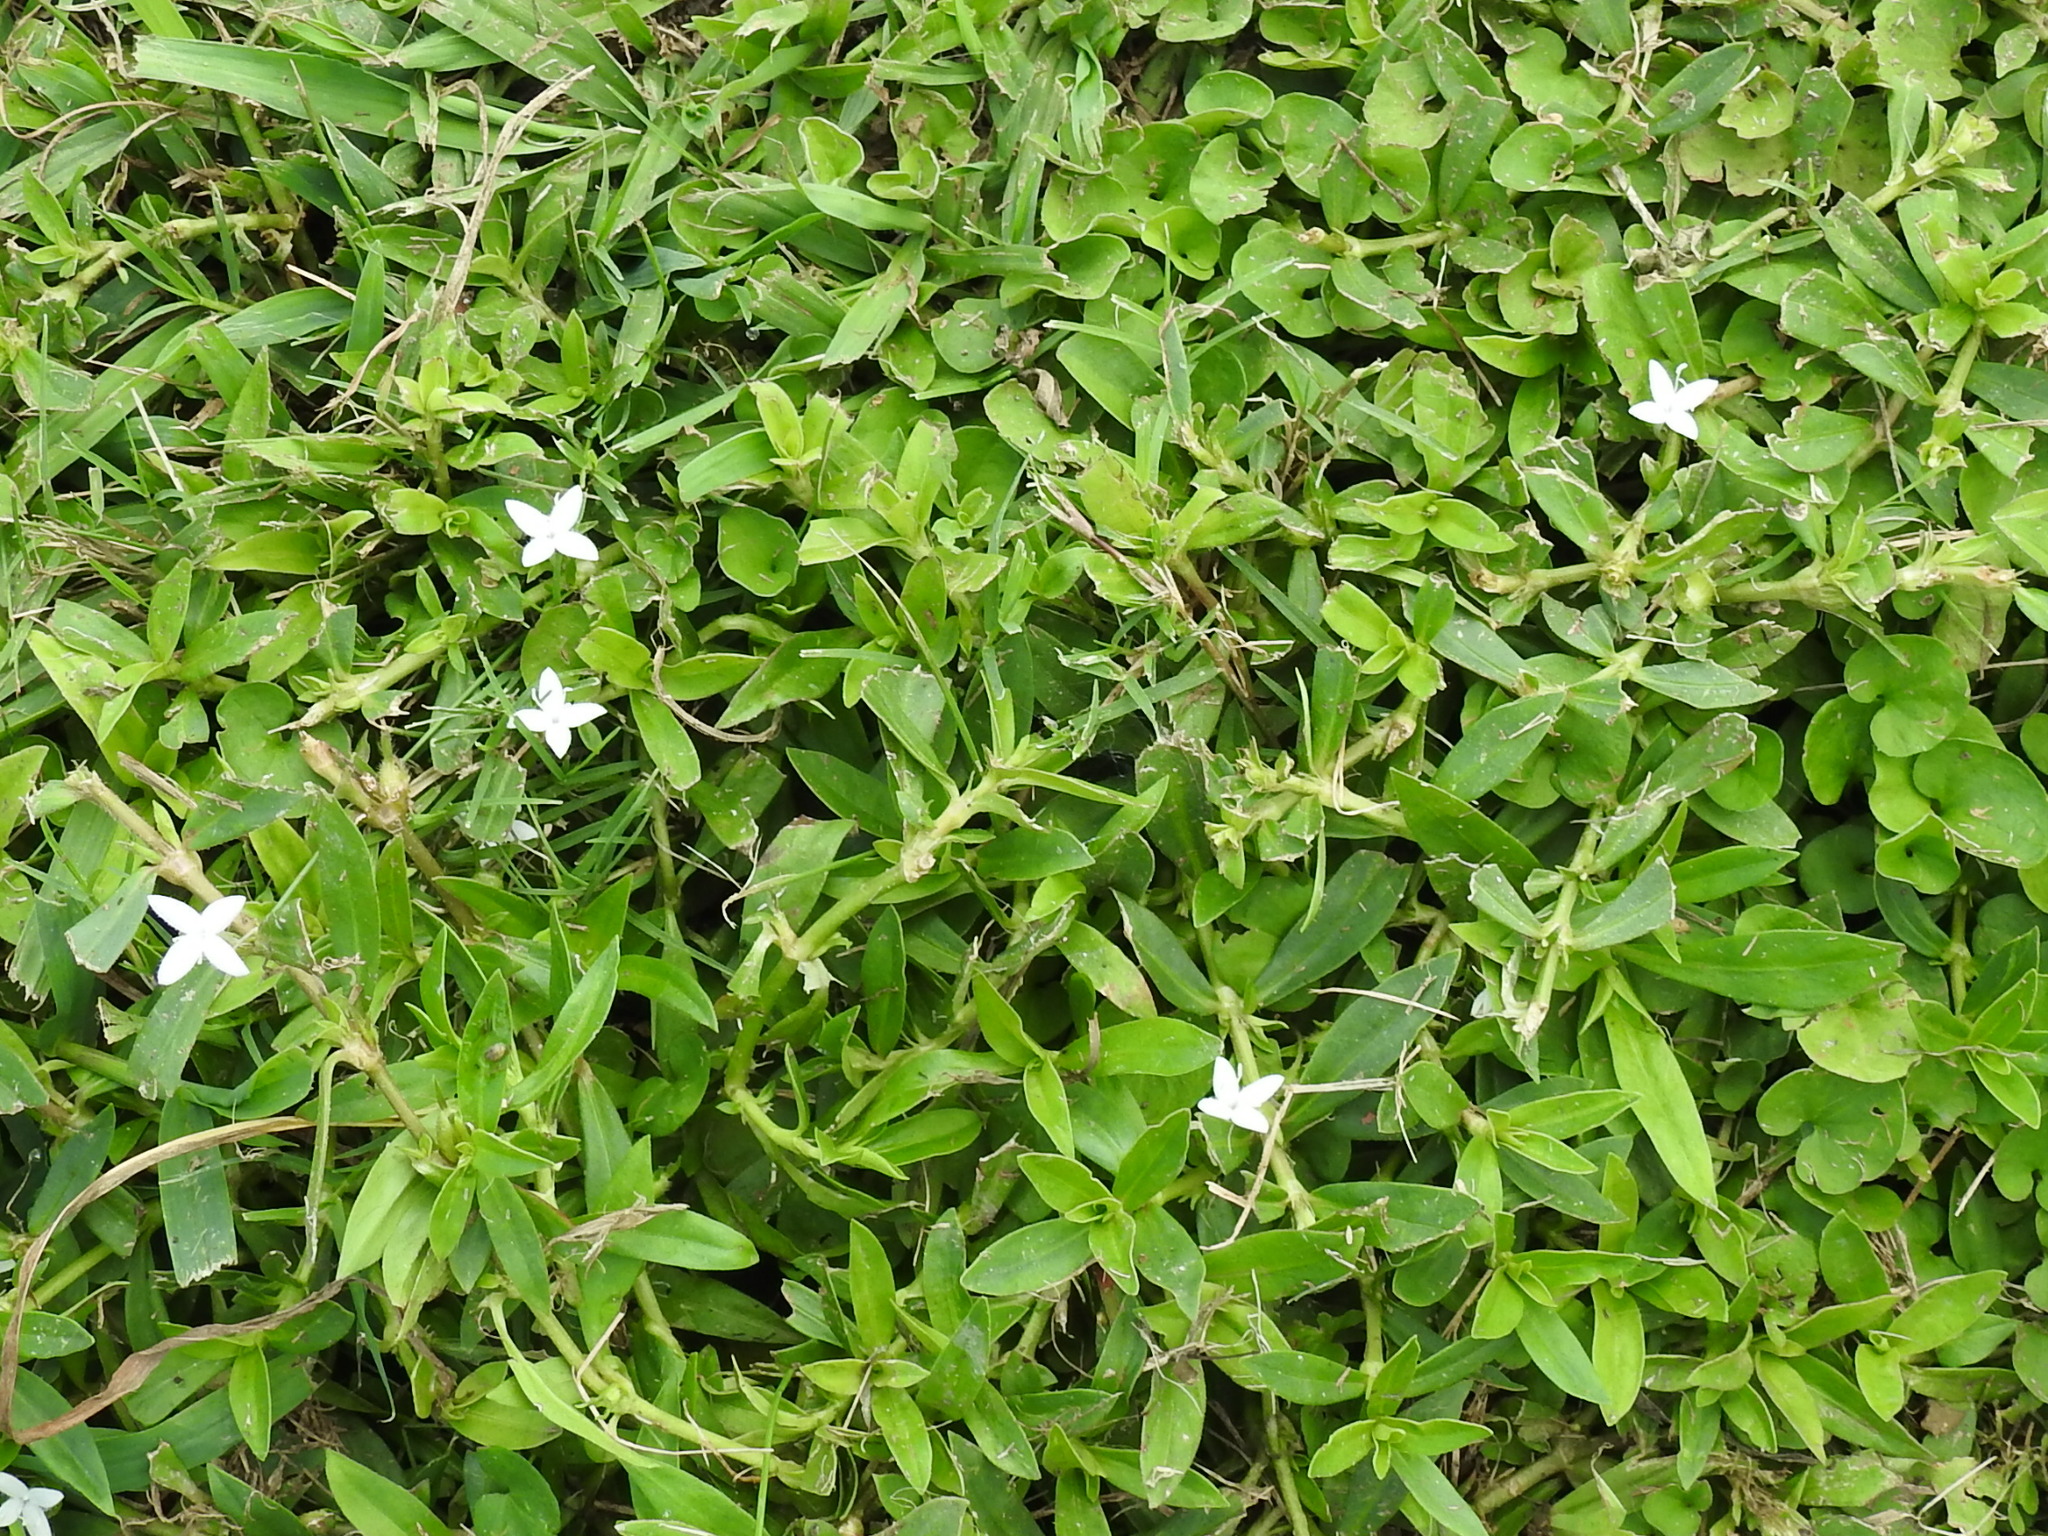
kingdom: Plantae
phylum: Tracheophyta
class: Magnoliopsida
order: Gentianales
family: Rubiaceae
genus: Diodia
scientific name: Diodia virginiana
